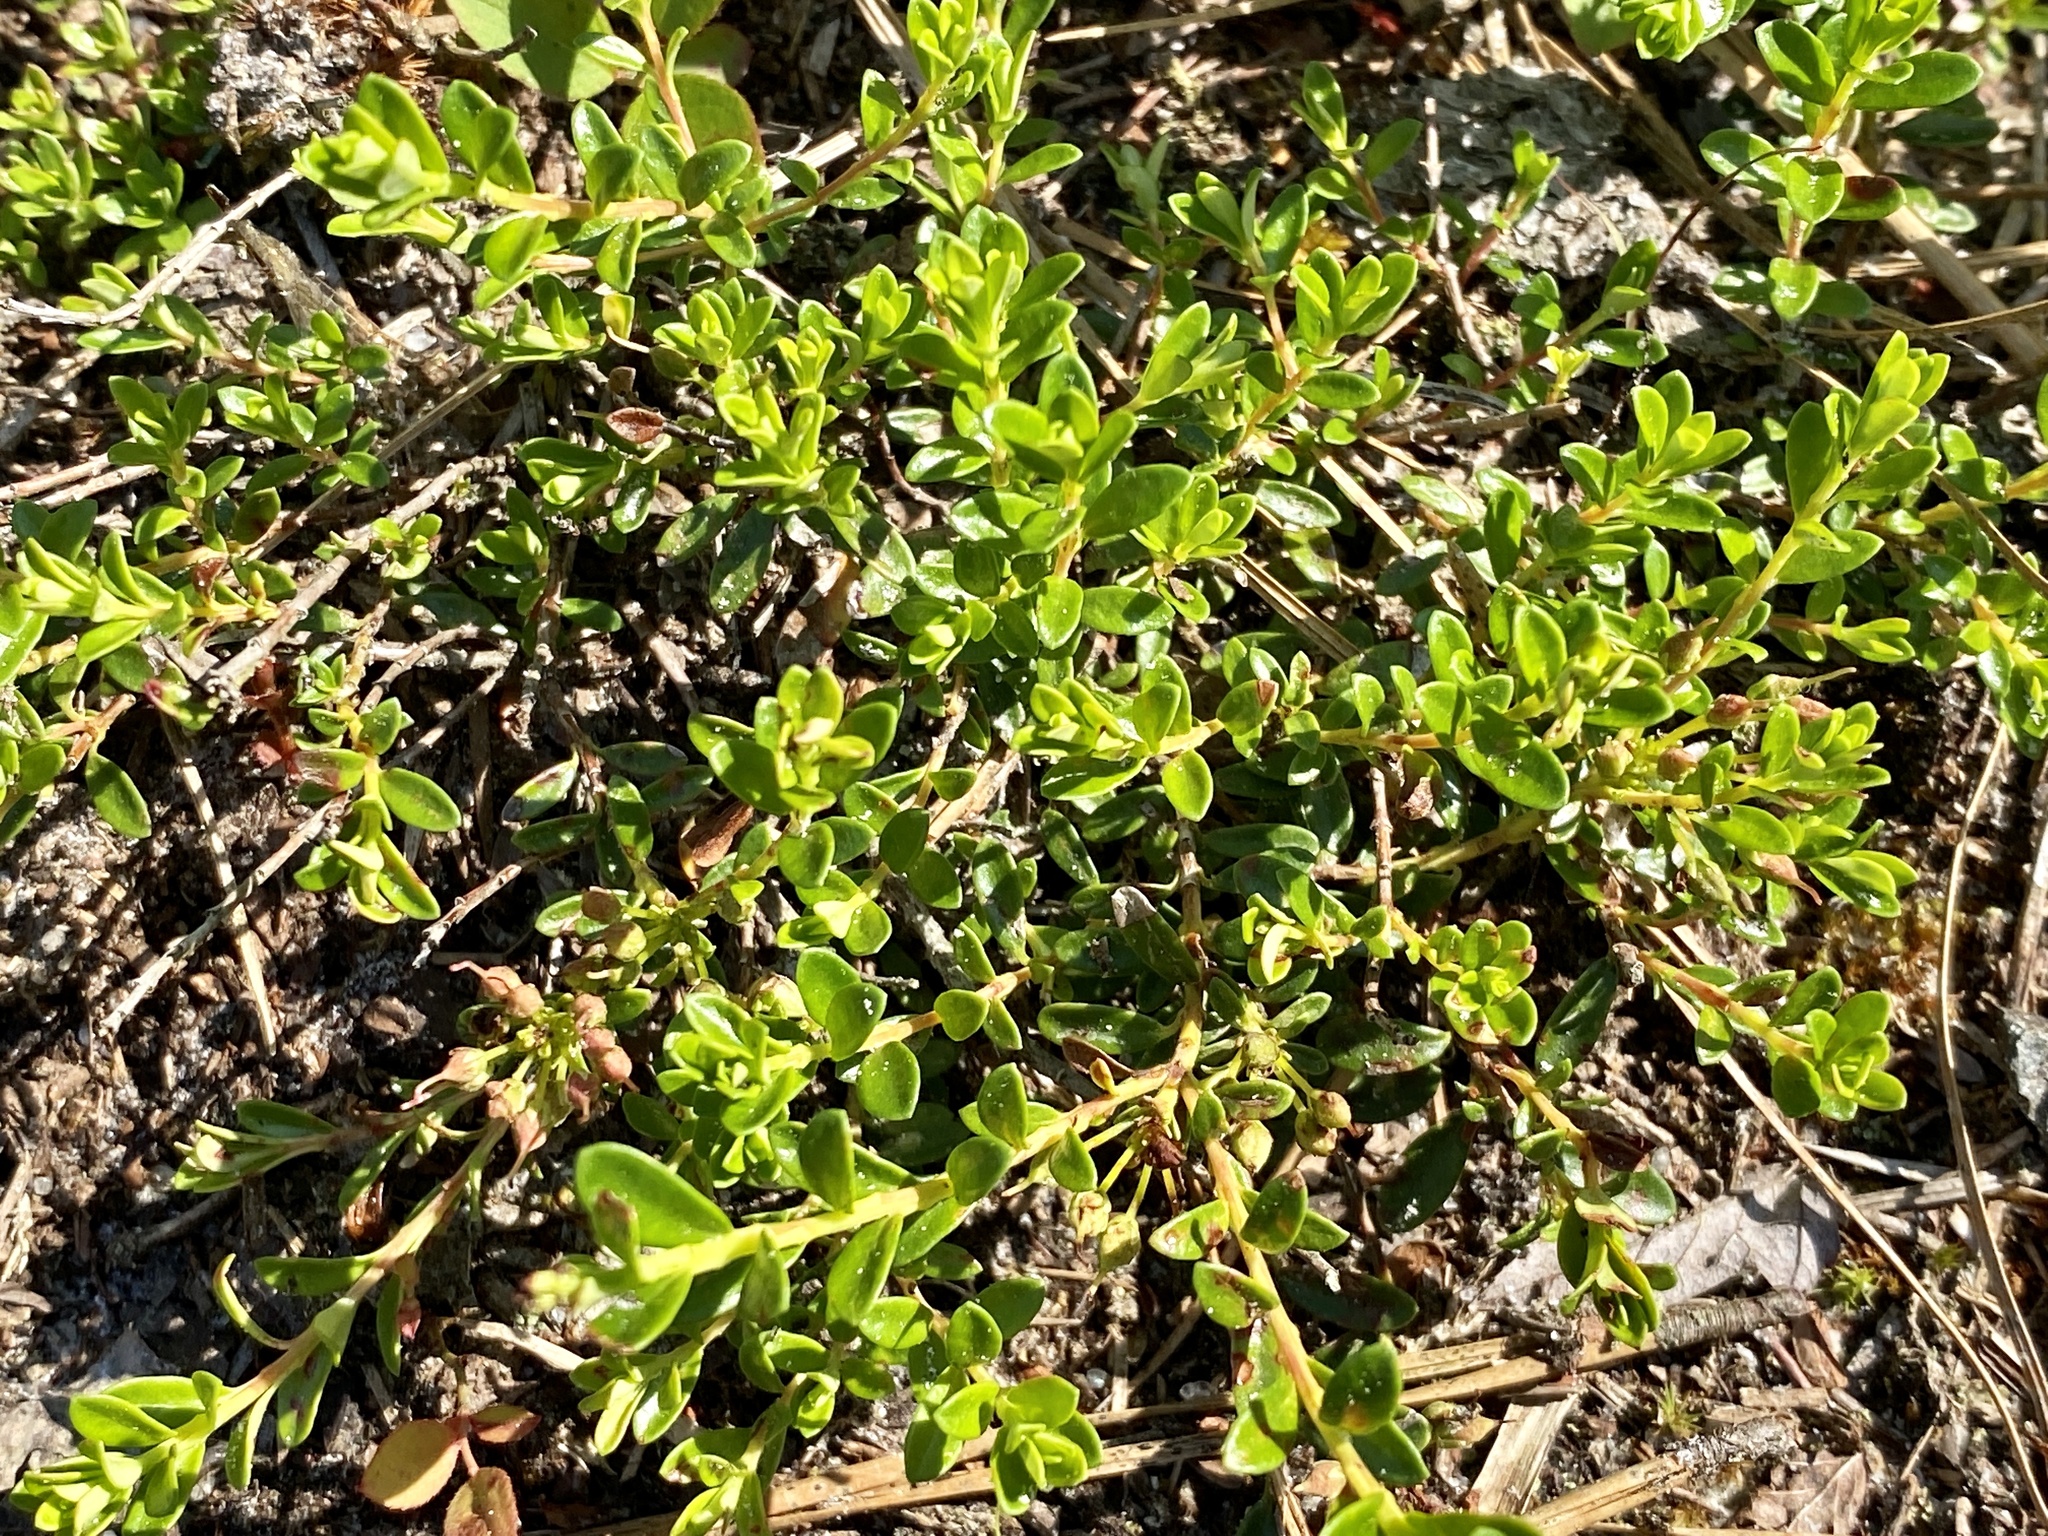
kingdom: Plantae
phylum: Tracheophyta
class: Magnoliopsida
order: Ericales
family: Ericaceae
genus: Kalmia
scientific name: Kalmia buxifolia
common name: Sandmyrtle
